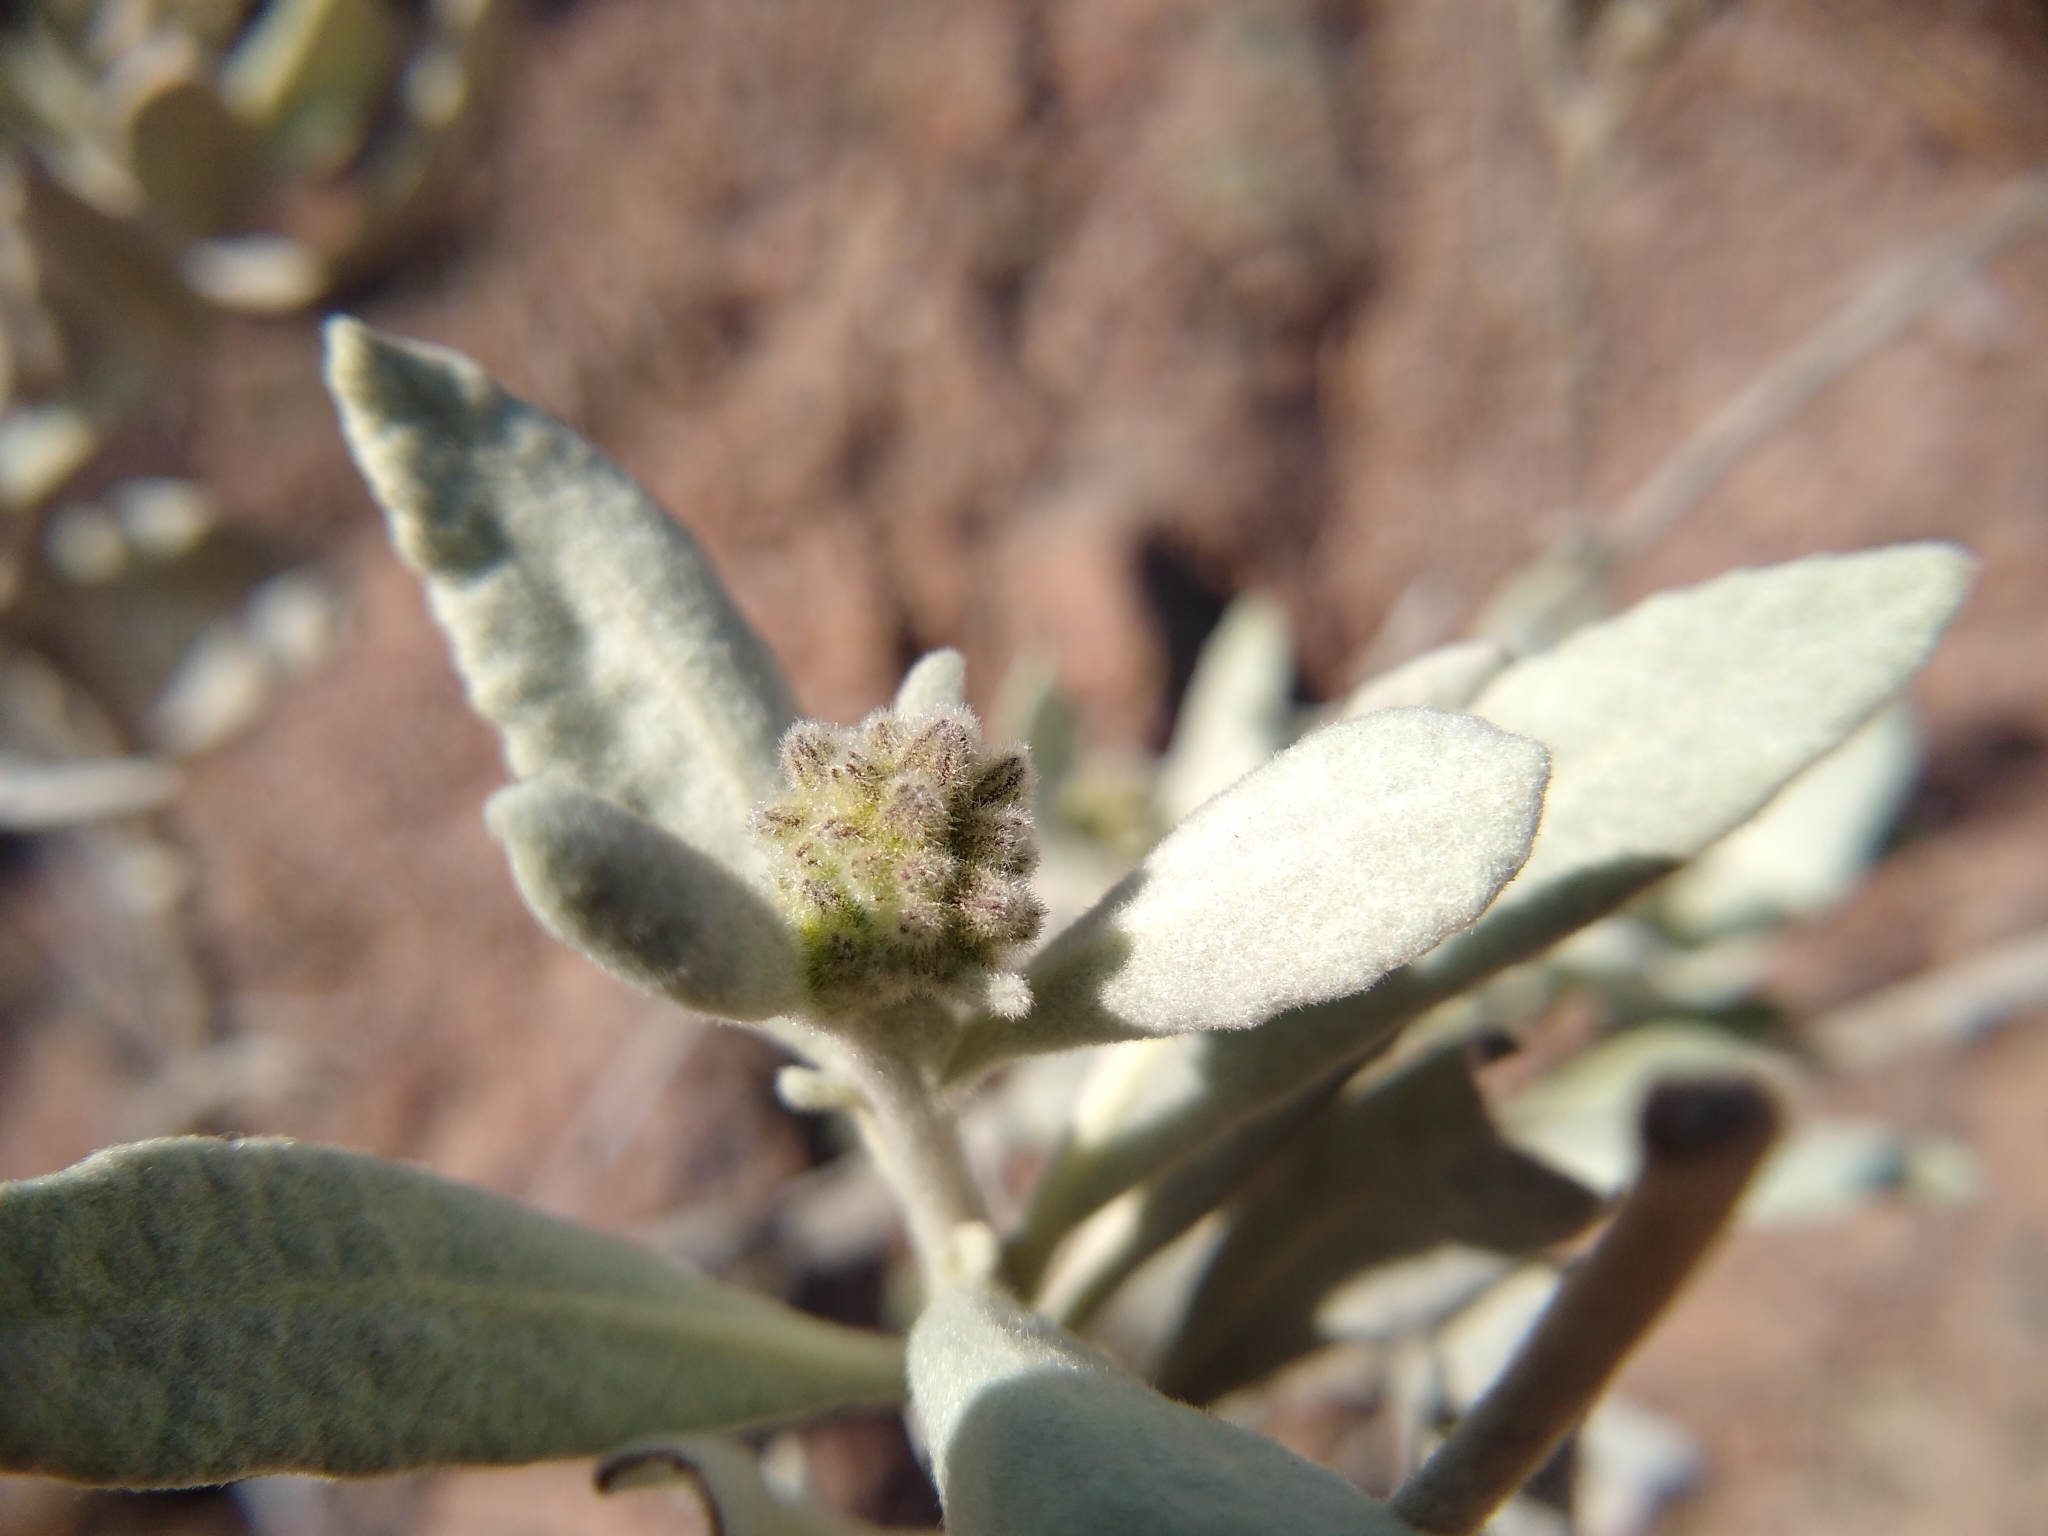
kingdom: Plantae
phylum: Tracheophyta
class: Magnoliopsida
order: Boraginales
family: Namaceae
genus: Eriodictyon
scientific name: Eriodictyon tomentosum
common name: Woolly yerba-santa
